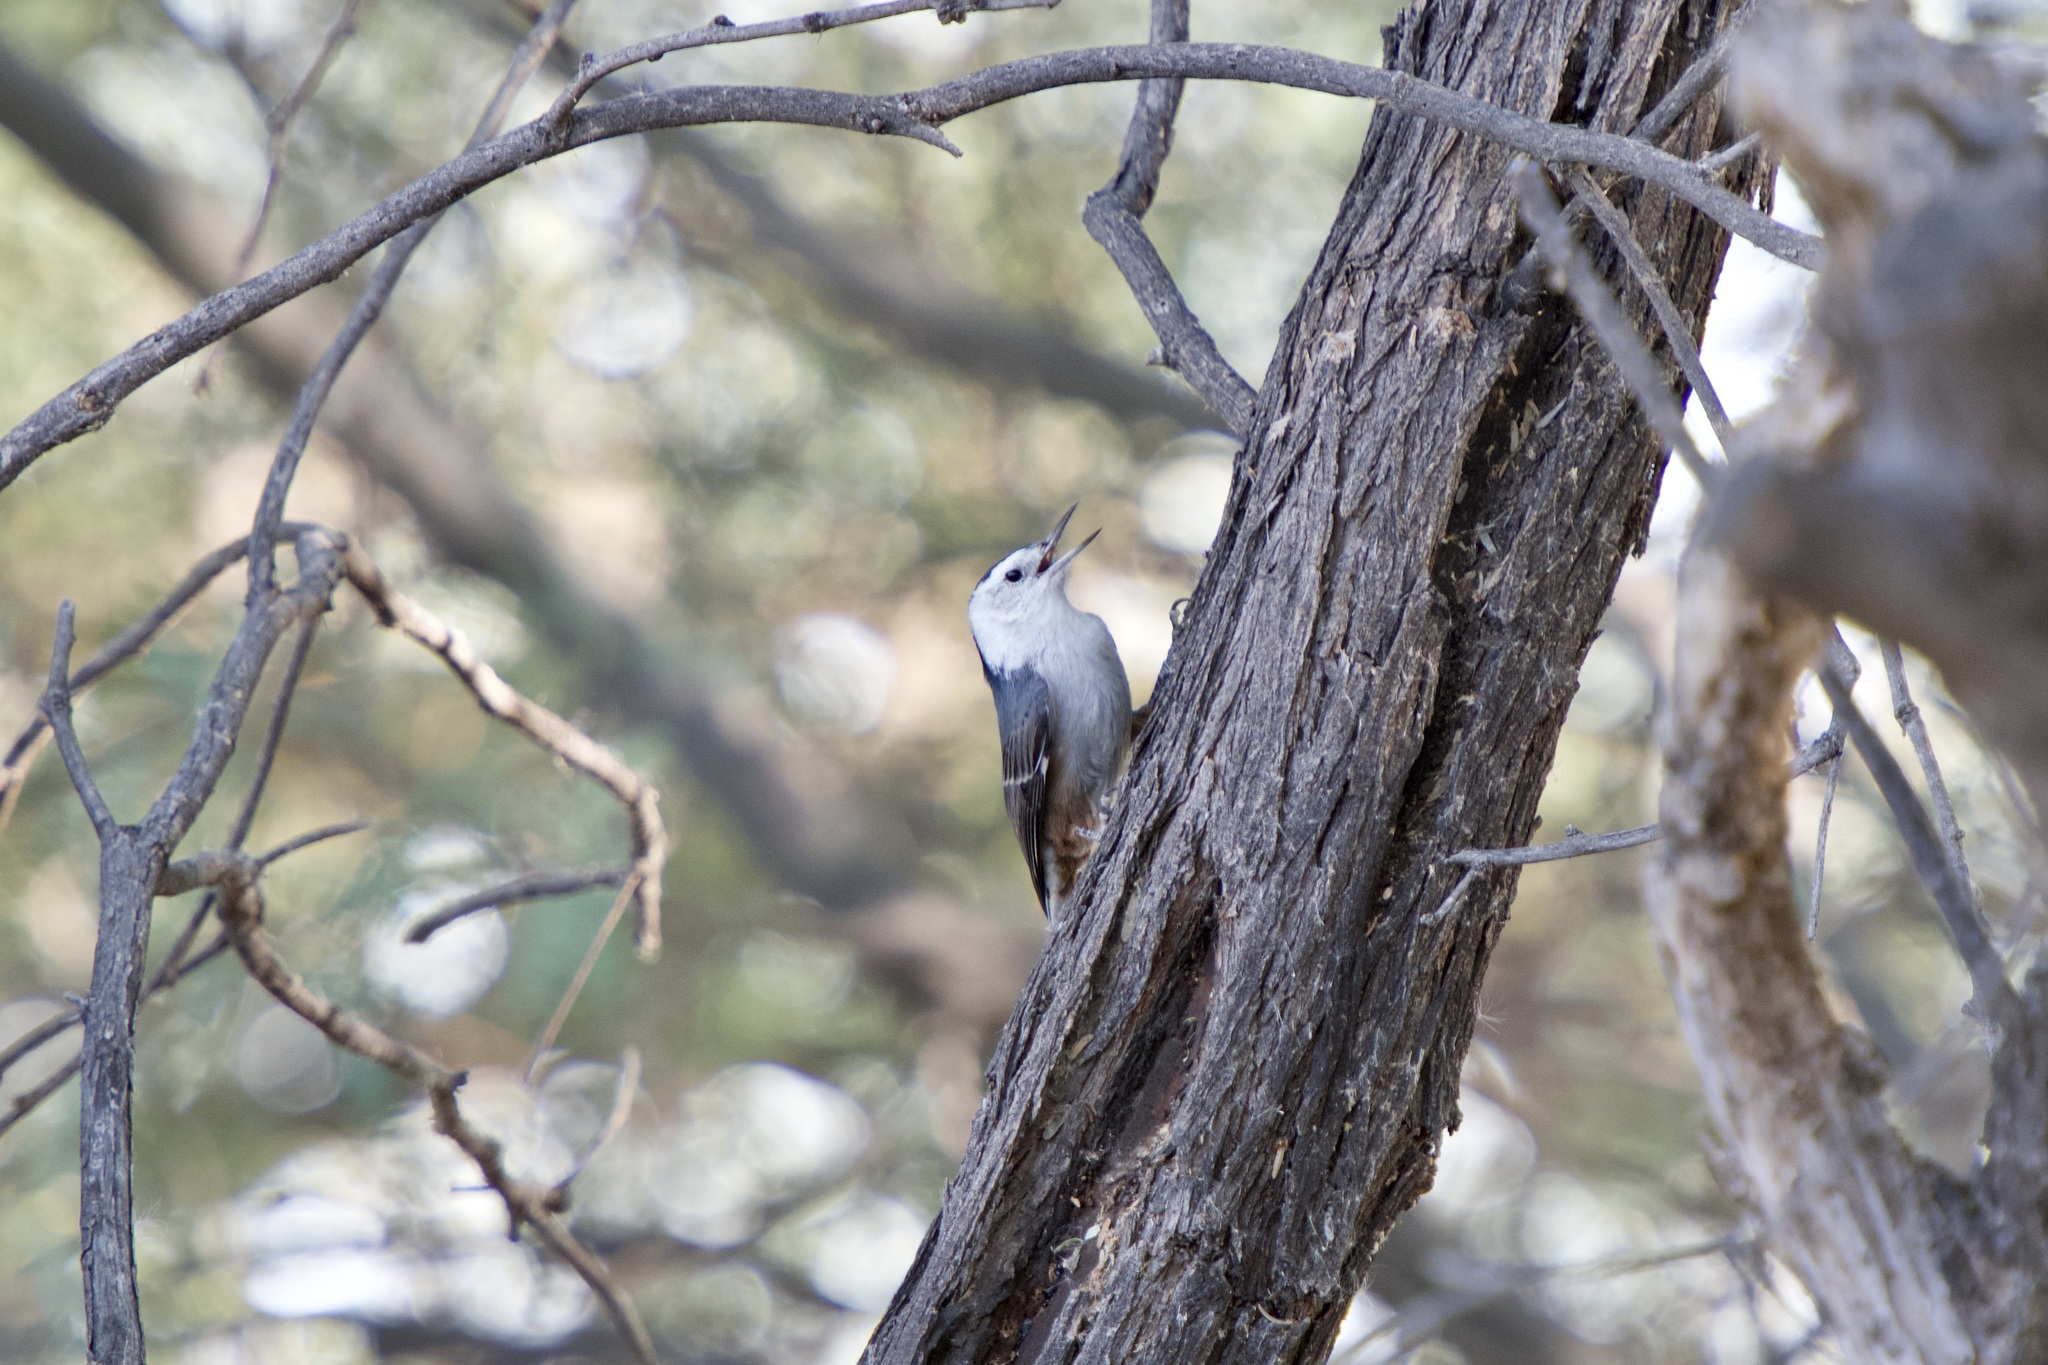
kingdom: Animalia
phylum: Chordata
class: Aves
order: Passeriformes
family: Sittidae
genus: Sitta
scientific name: Sitta carolinensis
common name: White-breasted nuthatch
